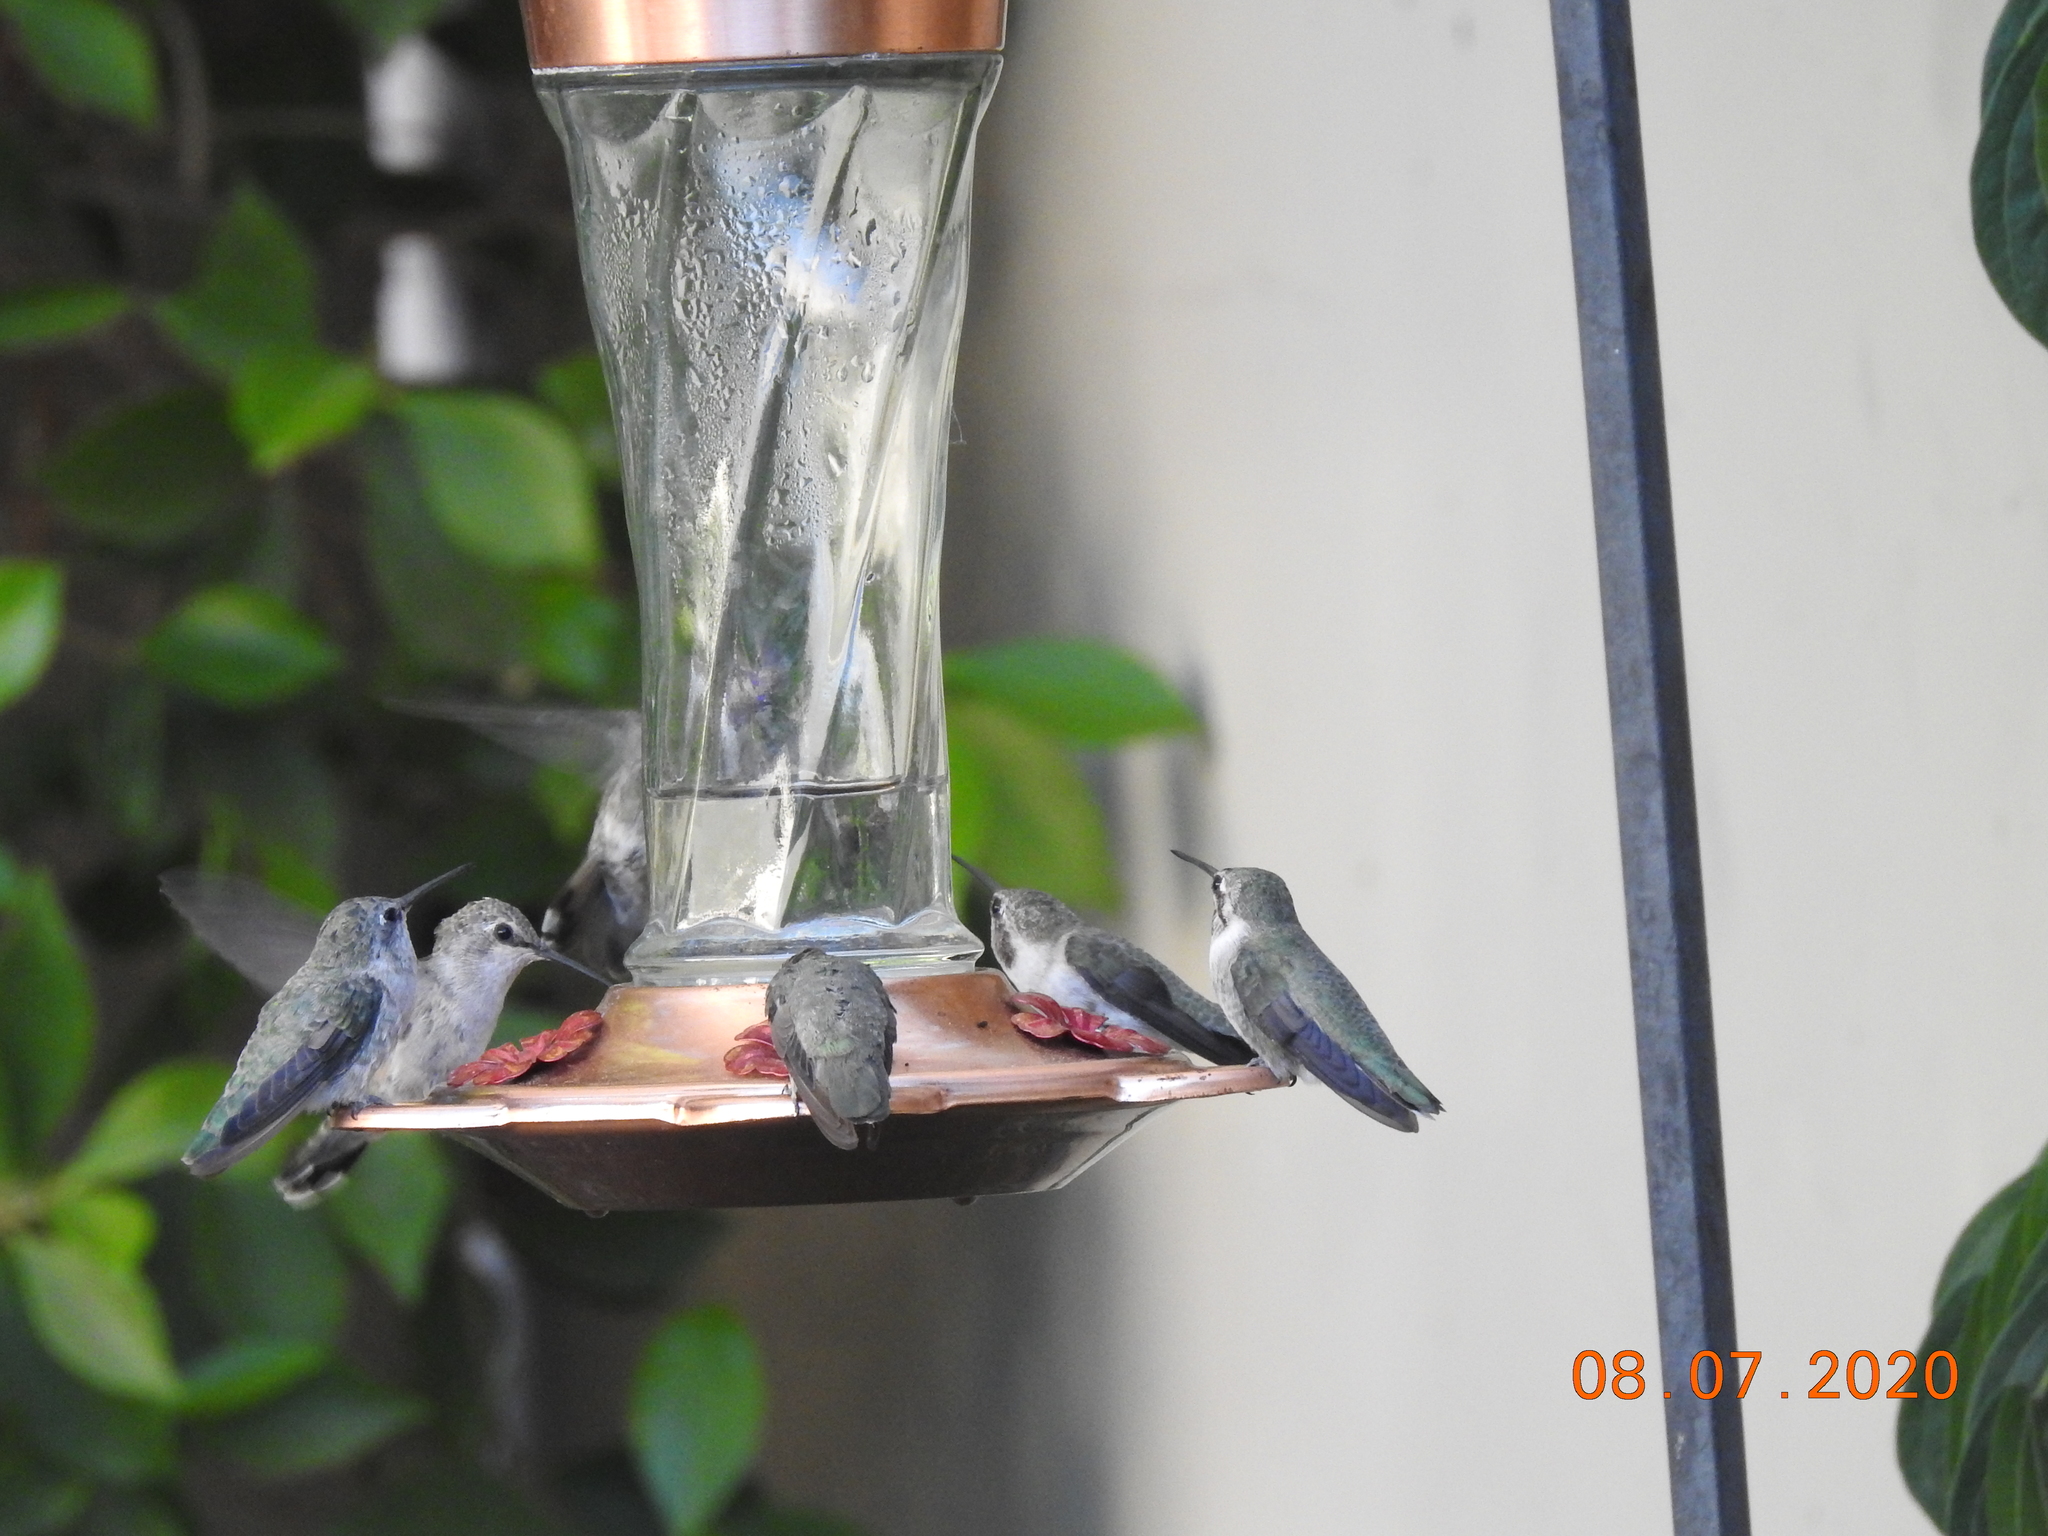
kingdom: Animalia
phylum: Chordata
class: Aves
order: Apodiformes
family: Trochilidae
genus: Calypte
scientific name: Calypte costae
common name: Costa's hummingbird
